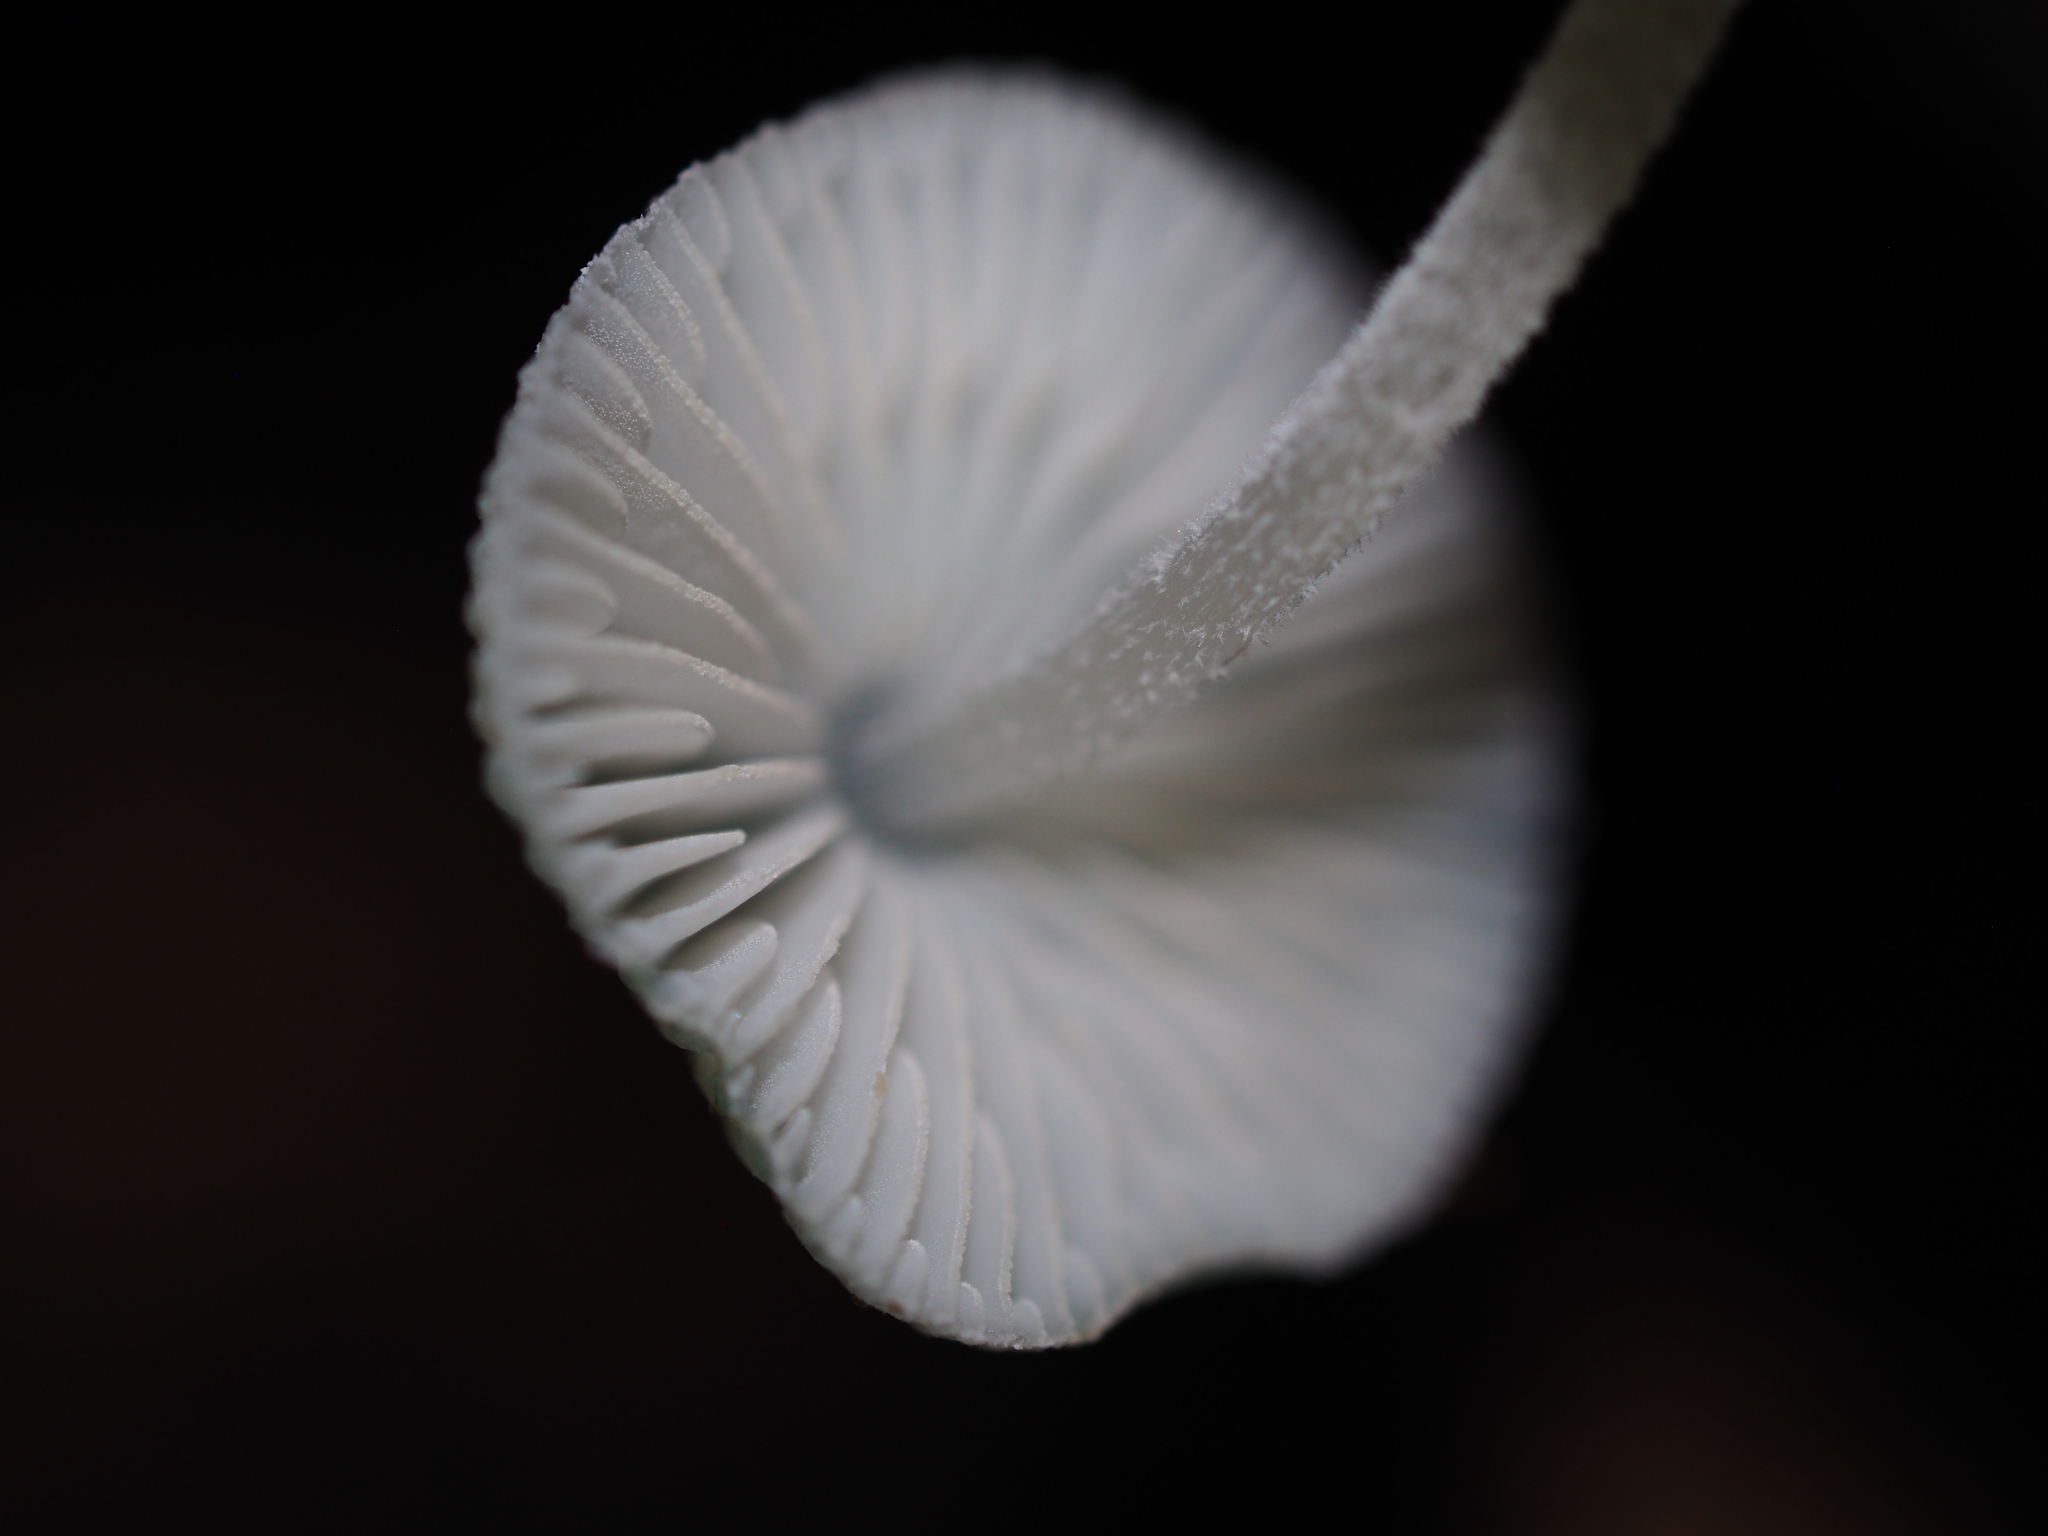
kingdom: Fungi
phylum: Basidiomycota
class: Agaricomycetes
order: Agaricales
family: Mycenaceae
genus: Mycena
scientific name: Mycena interrupta
